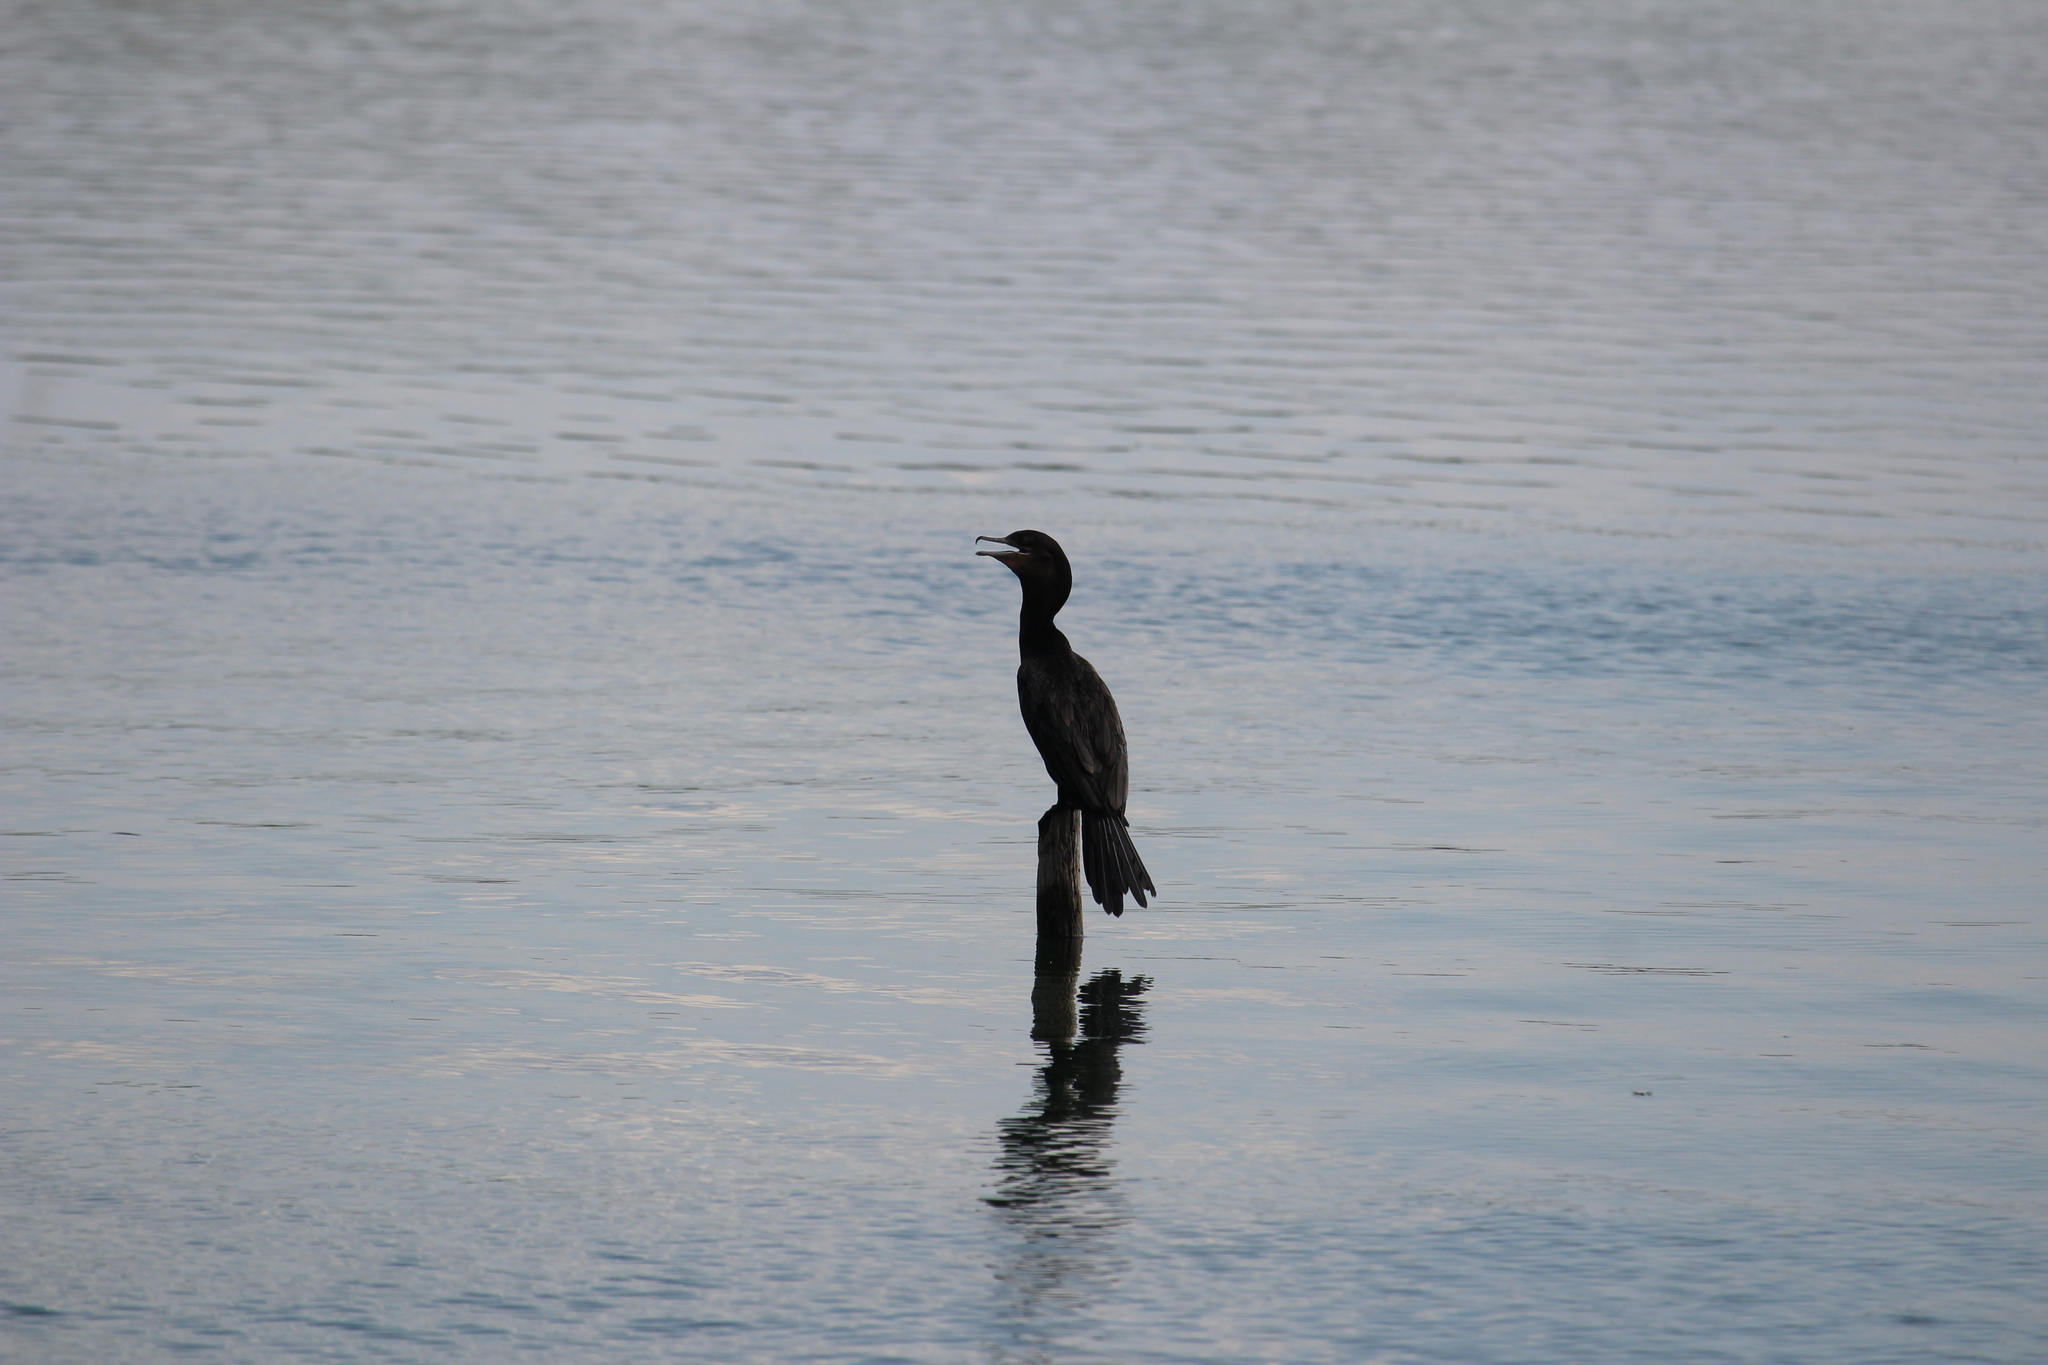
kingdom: Animalia
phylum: Chordata
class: Aves
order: Suliformes
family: Phalacrocoracidae
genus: Phalacrocorax
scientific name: Phalacrocorax brasilianus
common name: Neotropic cormorant
